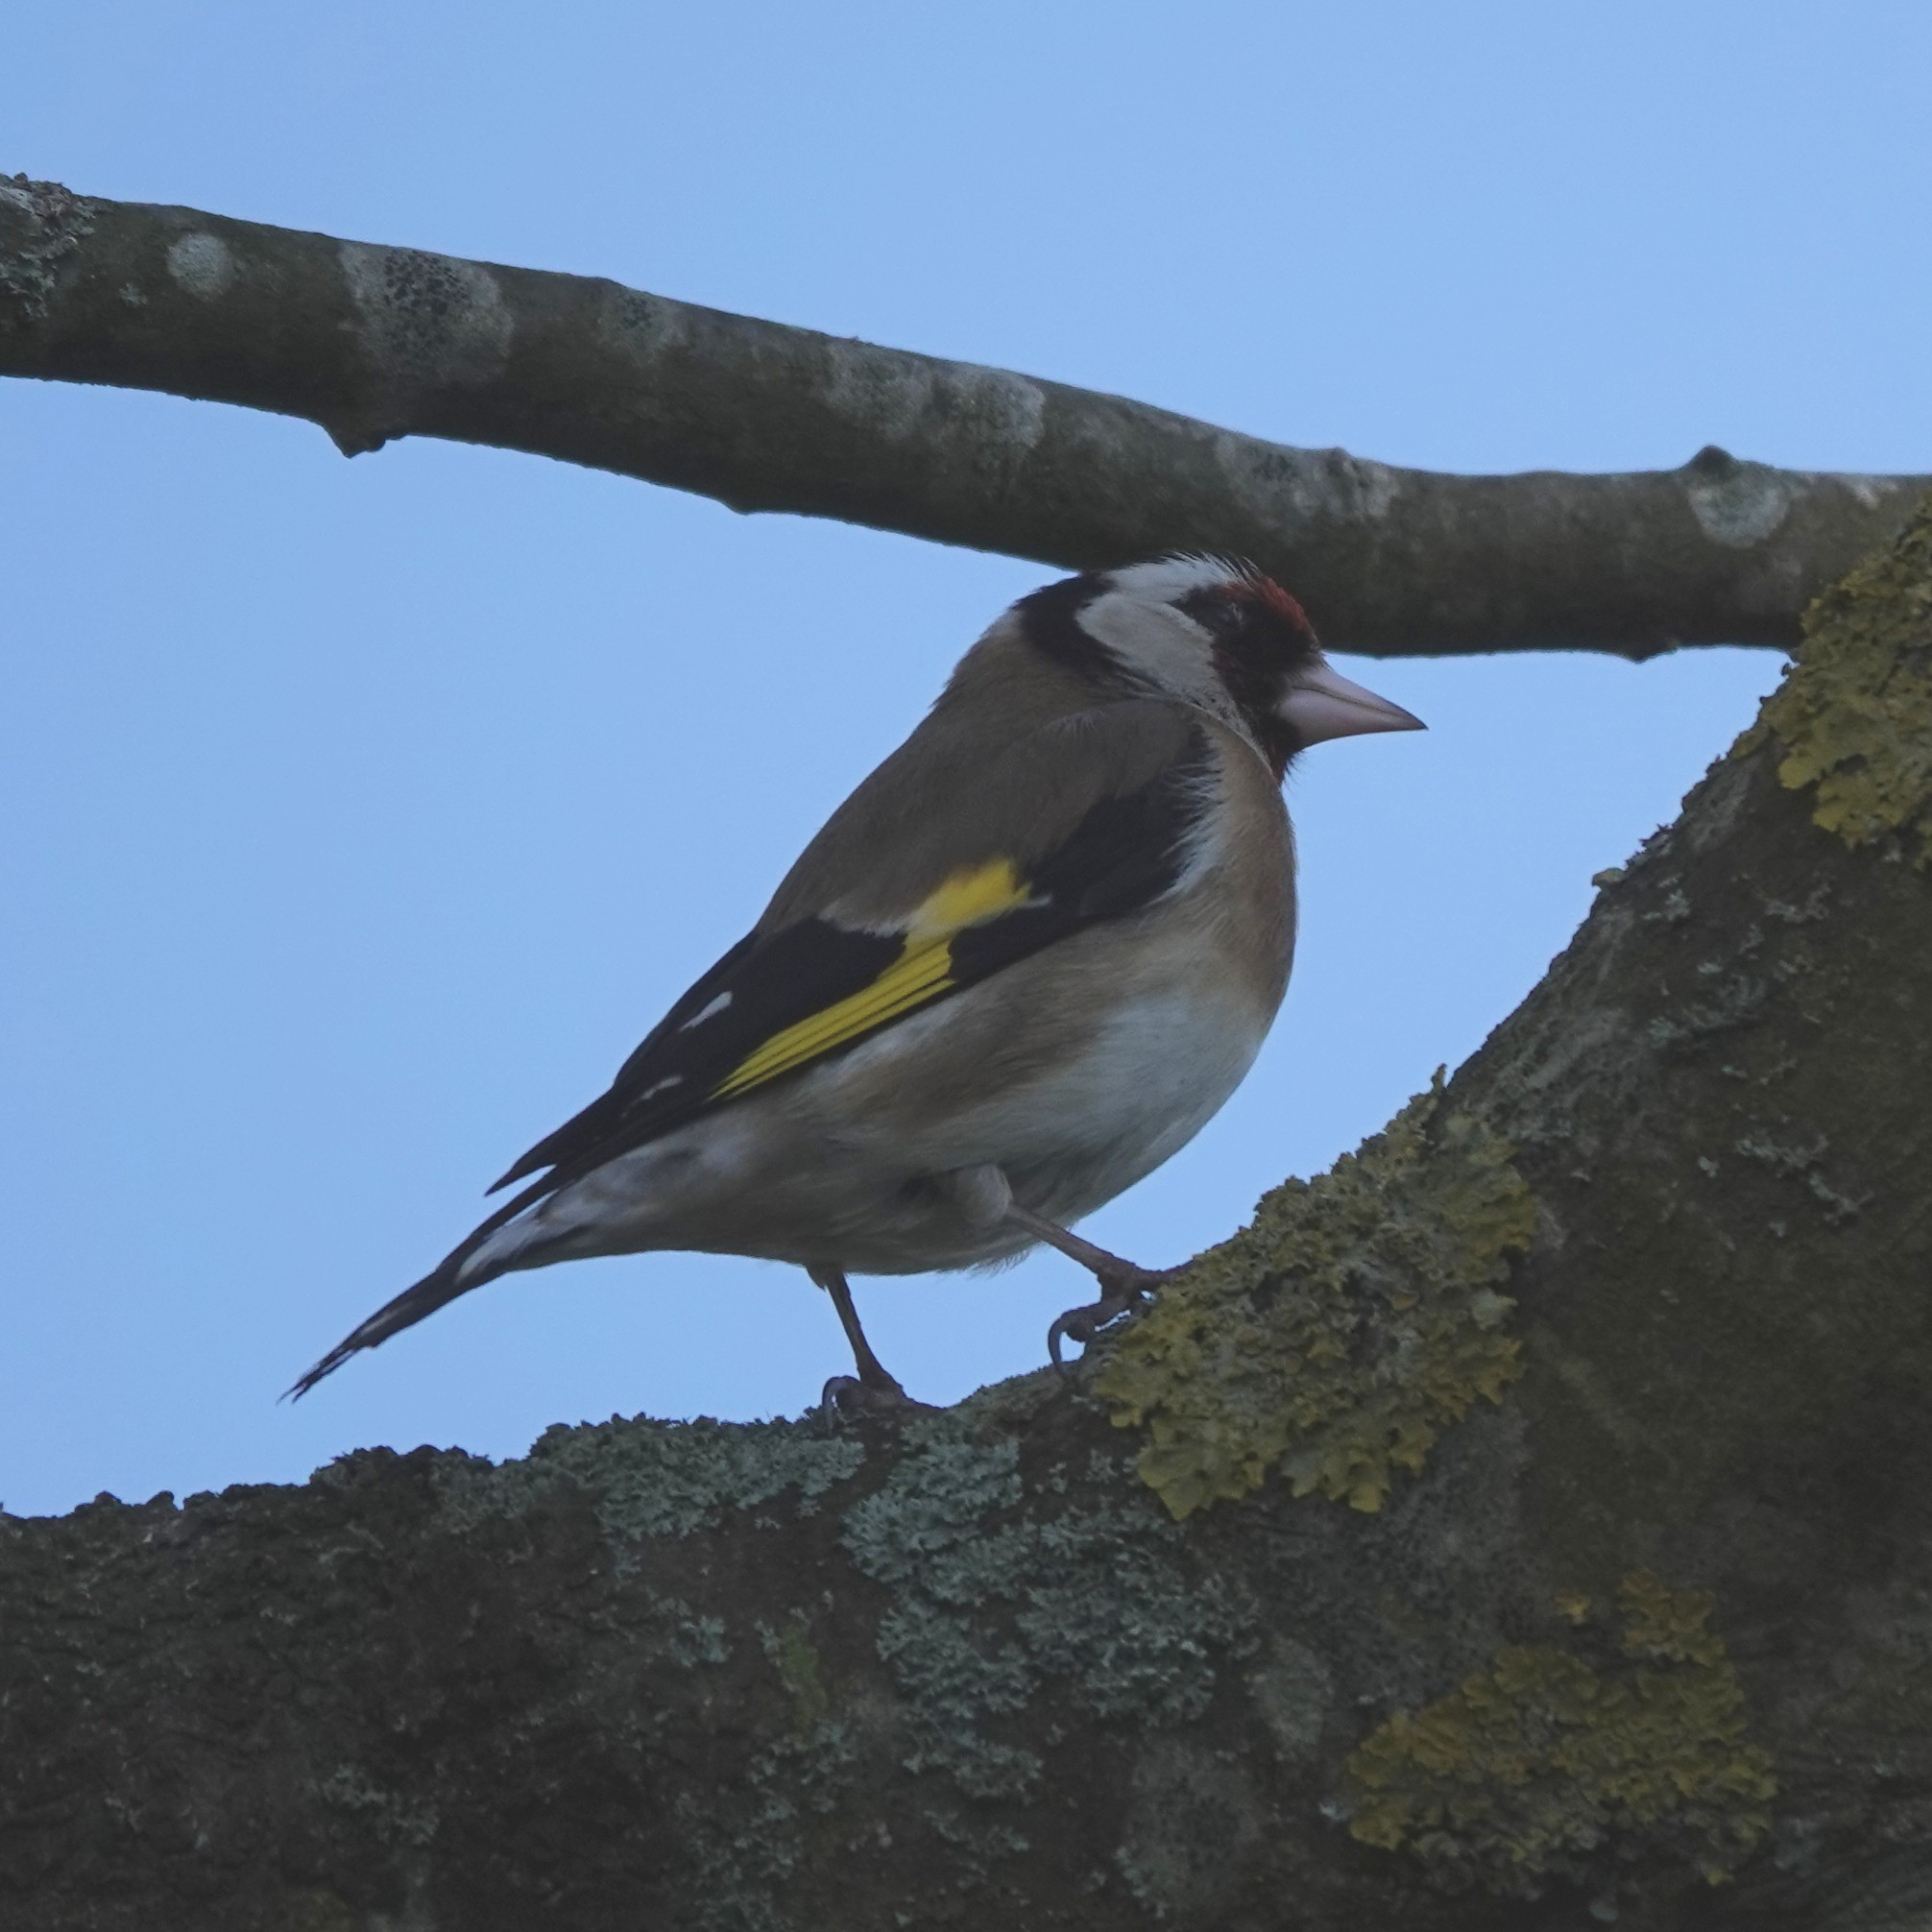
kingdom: Animalia
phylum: Chordata
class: Aves
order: Passeriformes
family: Fringillidae
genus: Carduelis
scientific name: Carduelis carduelis
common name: European goldfinch
